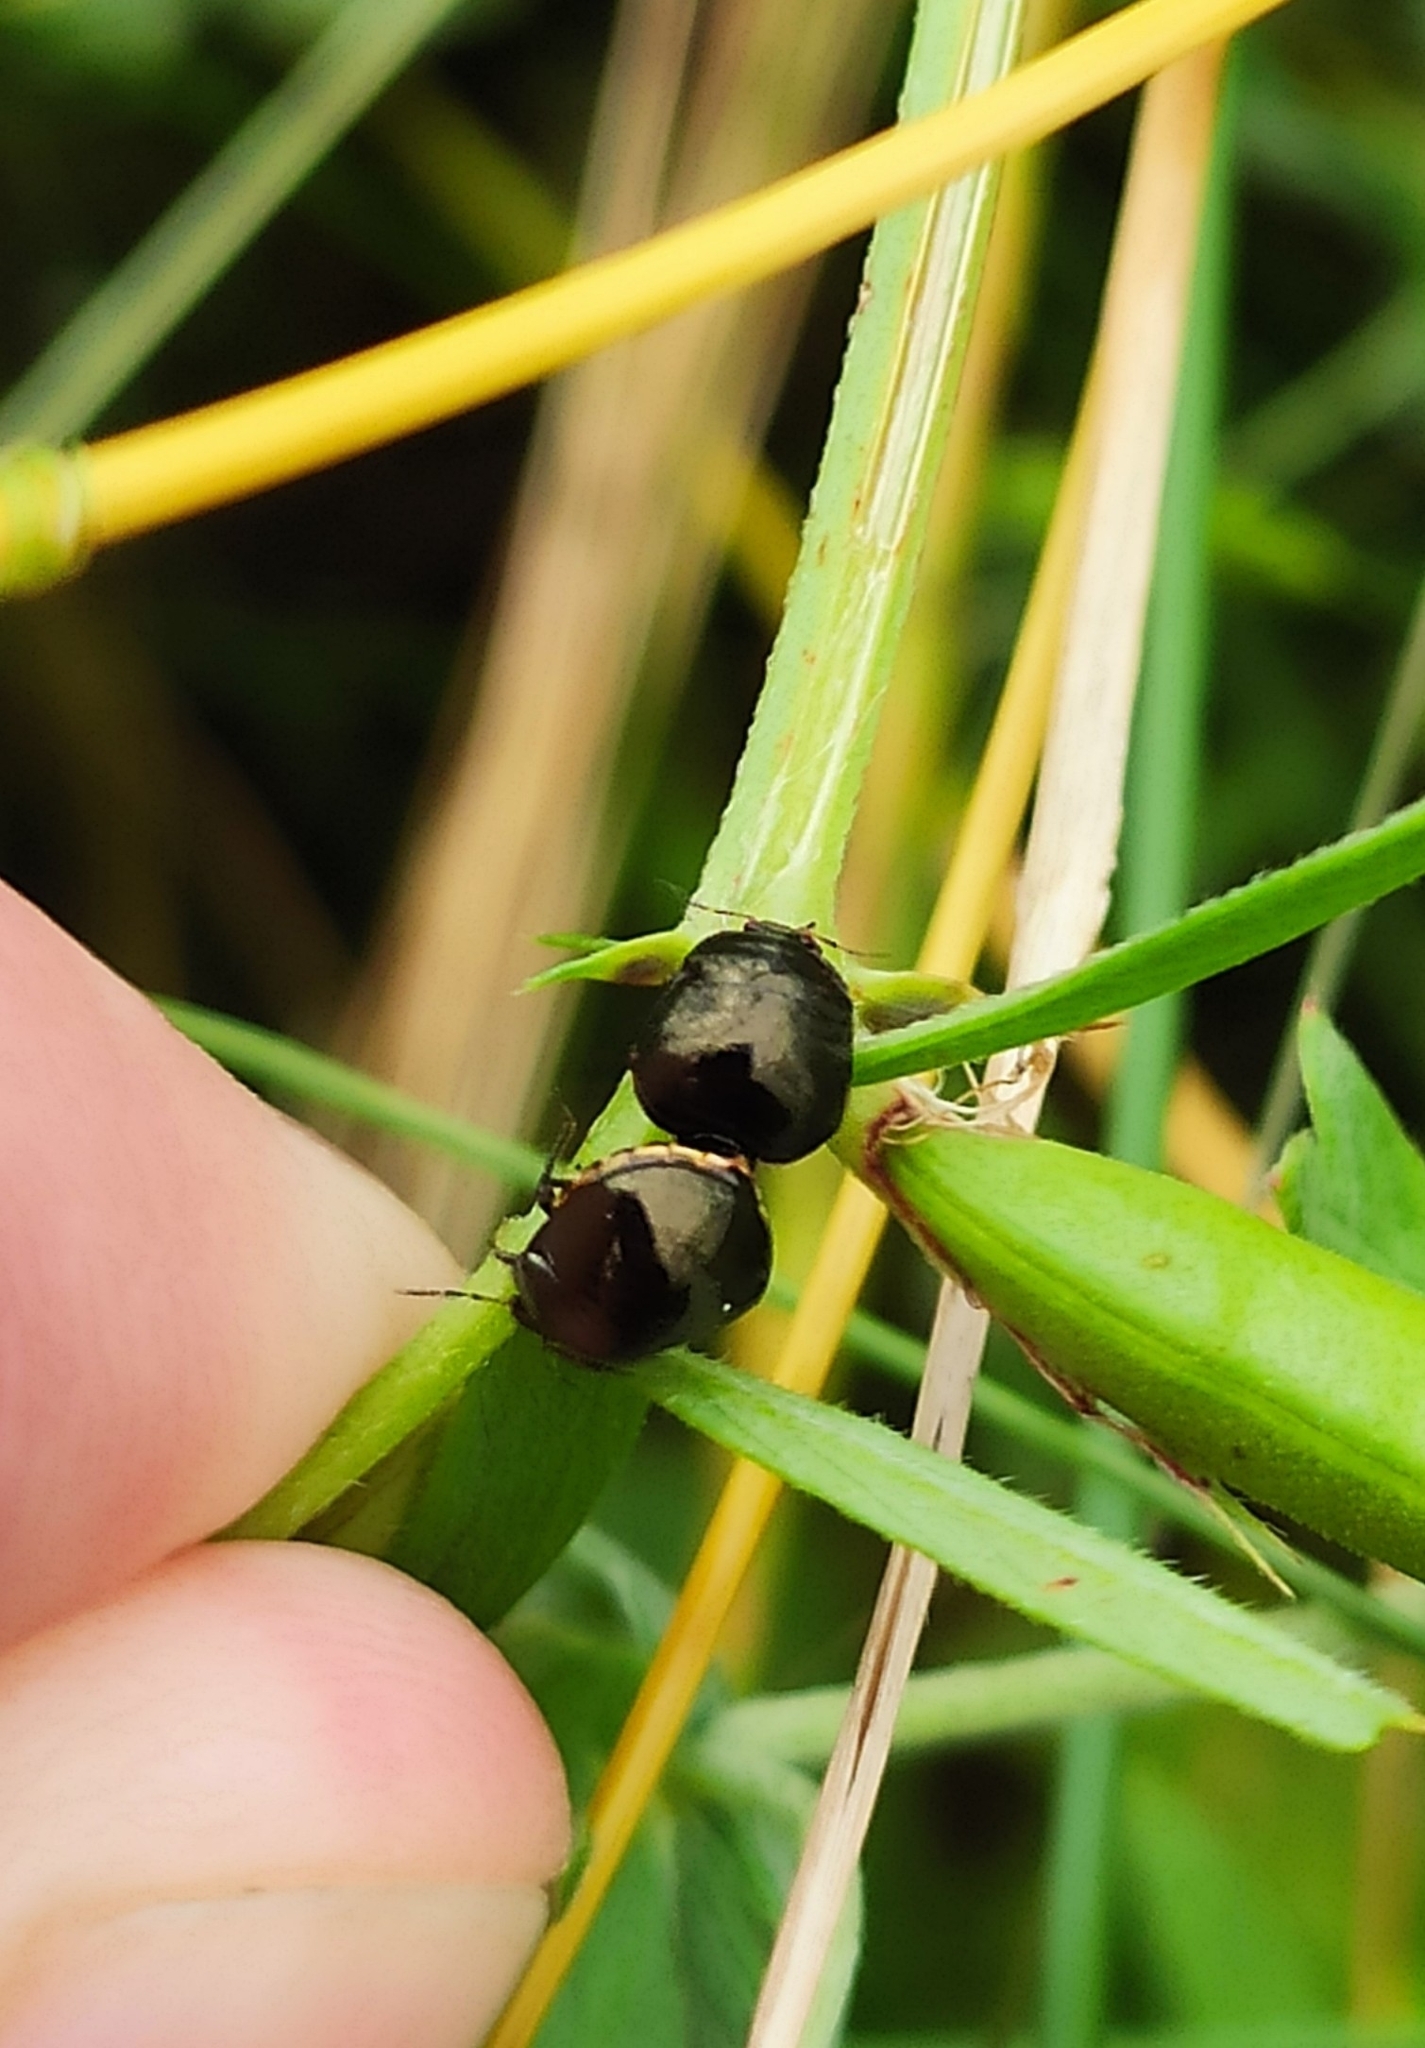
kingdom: Animalia
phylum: Arthropoda
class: Insecta
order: Hemiptera
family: Plataspidae
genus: Coptosoma
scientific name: Coptosoma scutellatum
